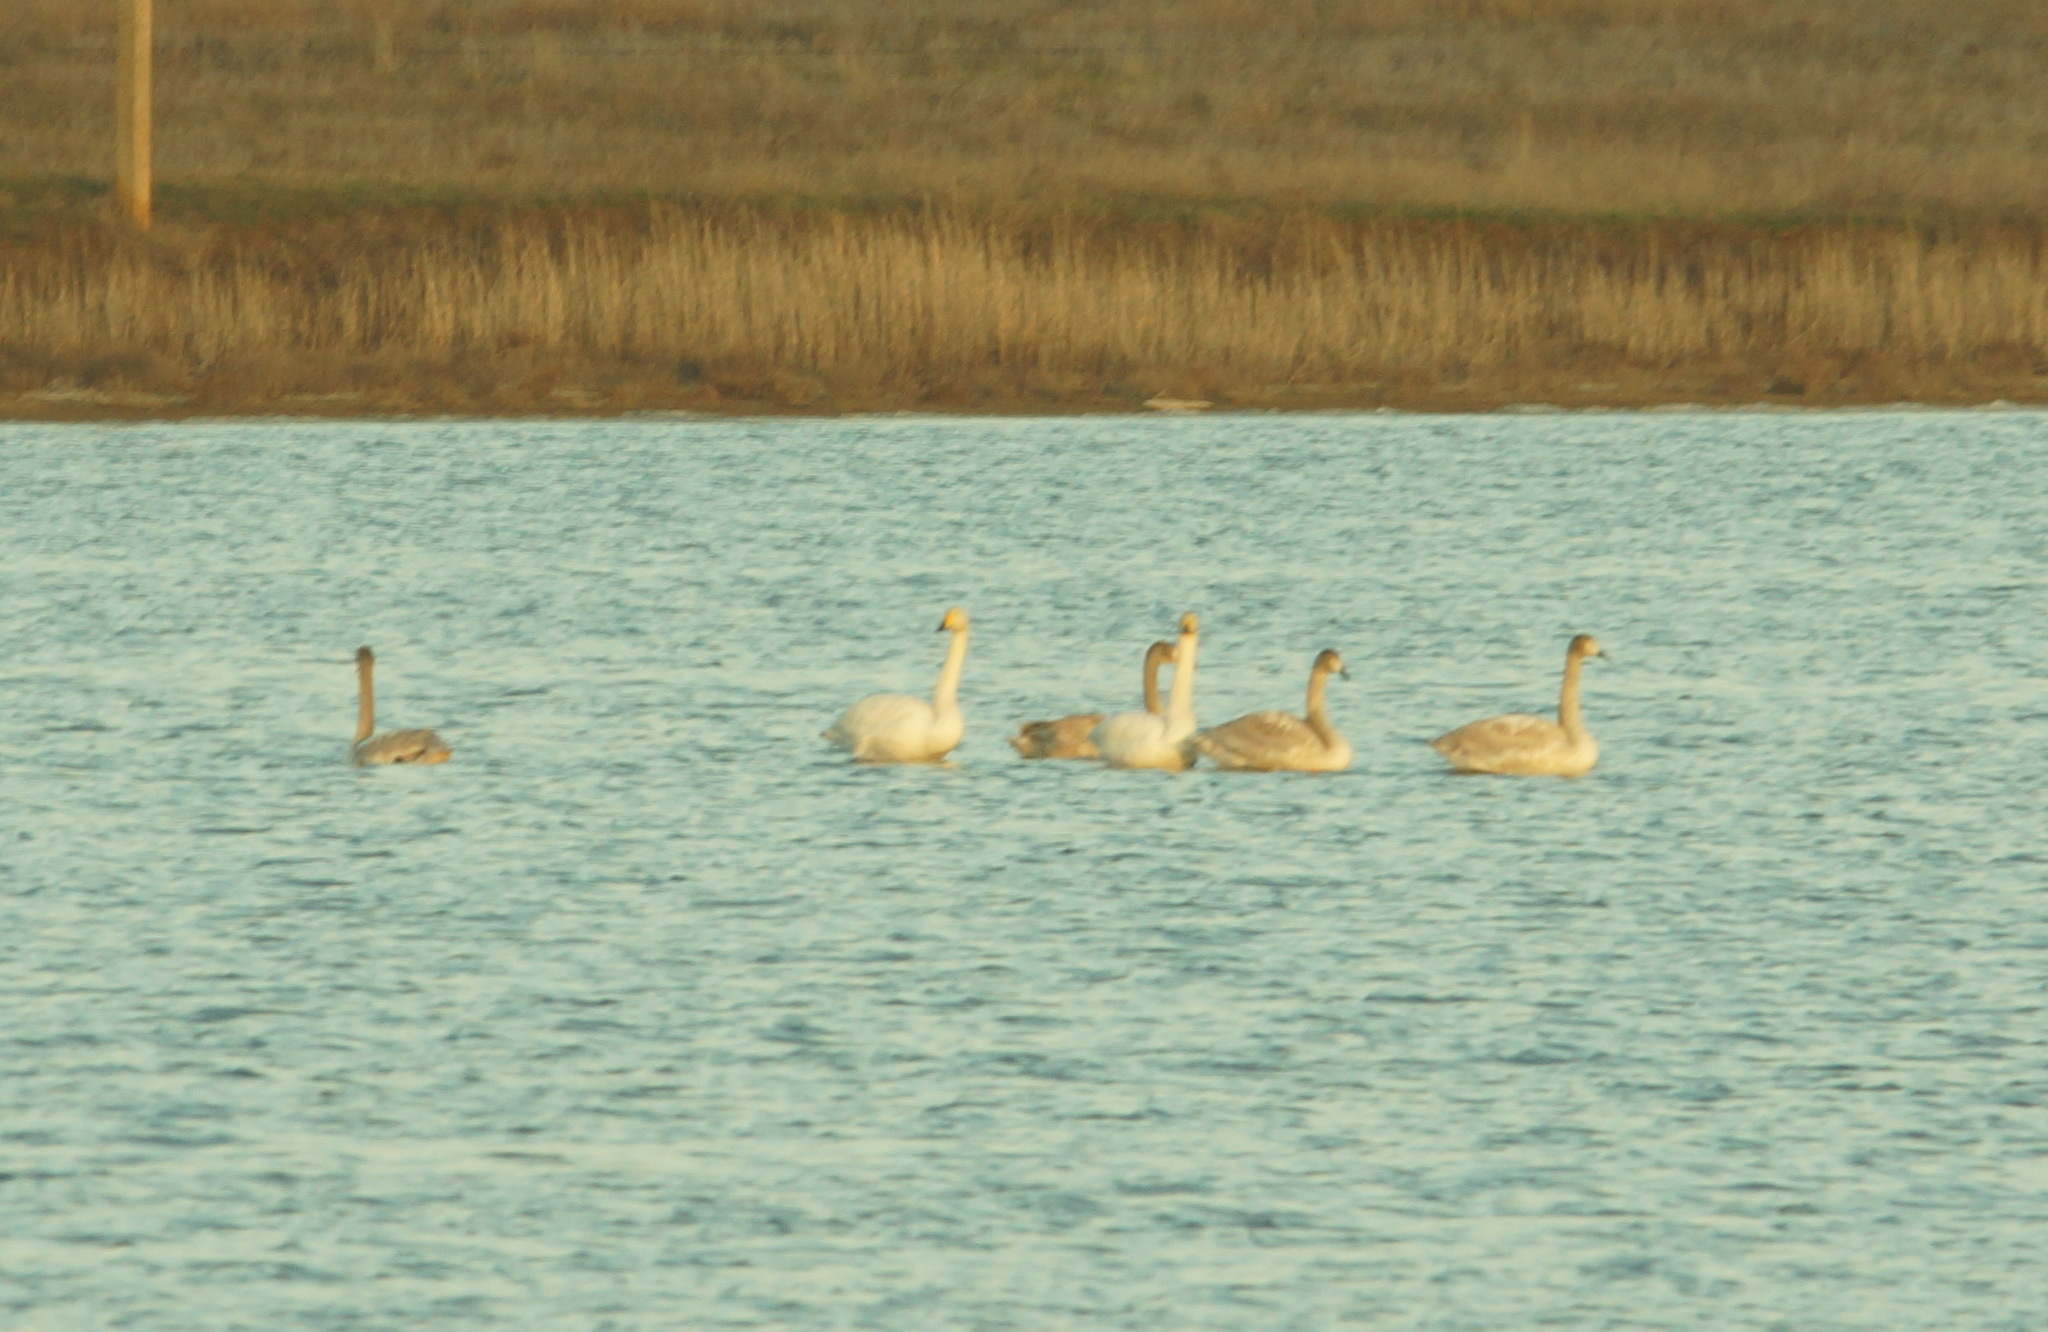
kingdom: Animalia
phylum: Chordata
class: Aves
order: Anseriformes
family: Anatidae
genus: Cygnus
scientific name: Cygnus cygnus
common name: Whooper swan
